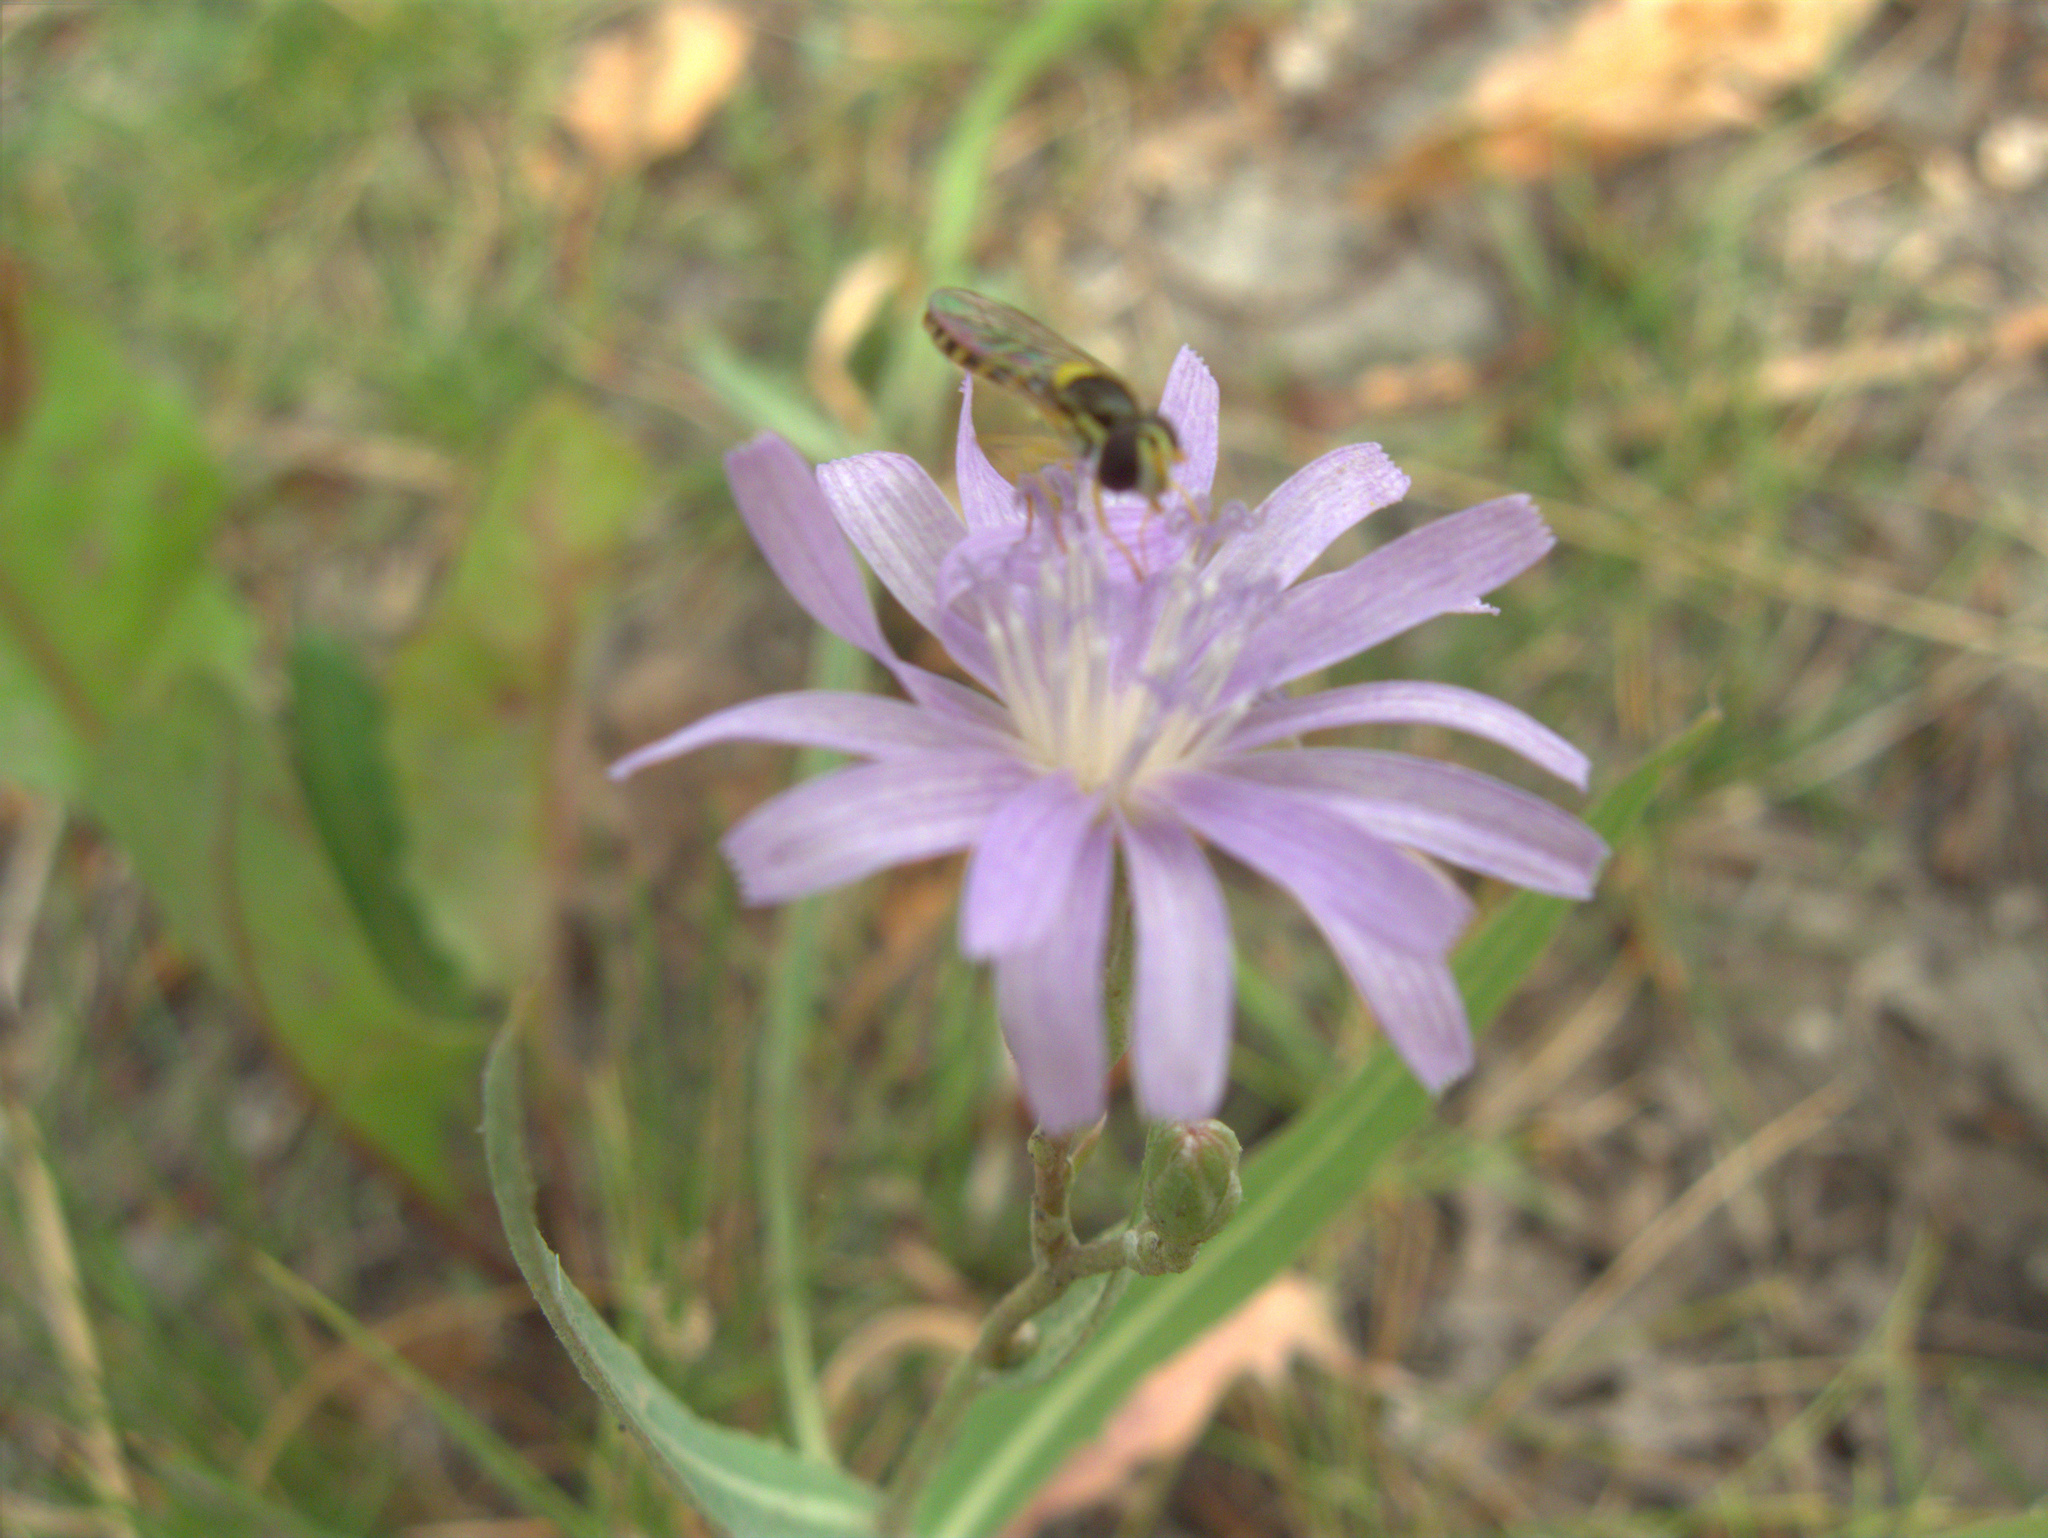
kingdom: Animalia
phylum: Arthropoda
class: Insecta
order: Diptera
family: Syrphidae
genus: Sphaerophoria
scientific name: Sphaerophoria
